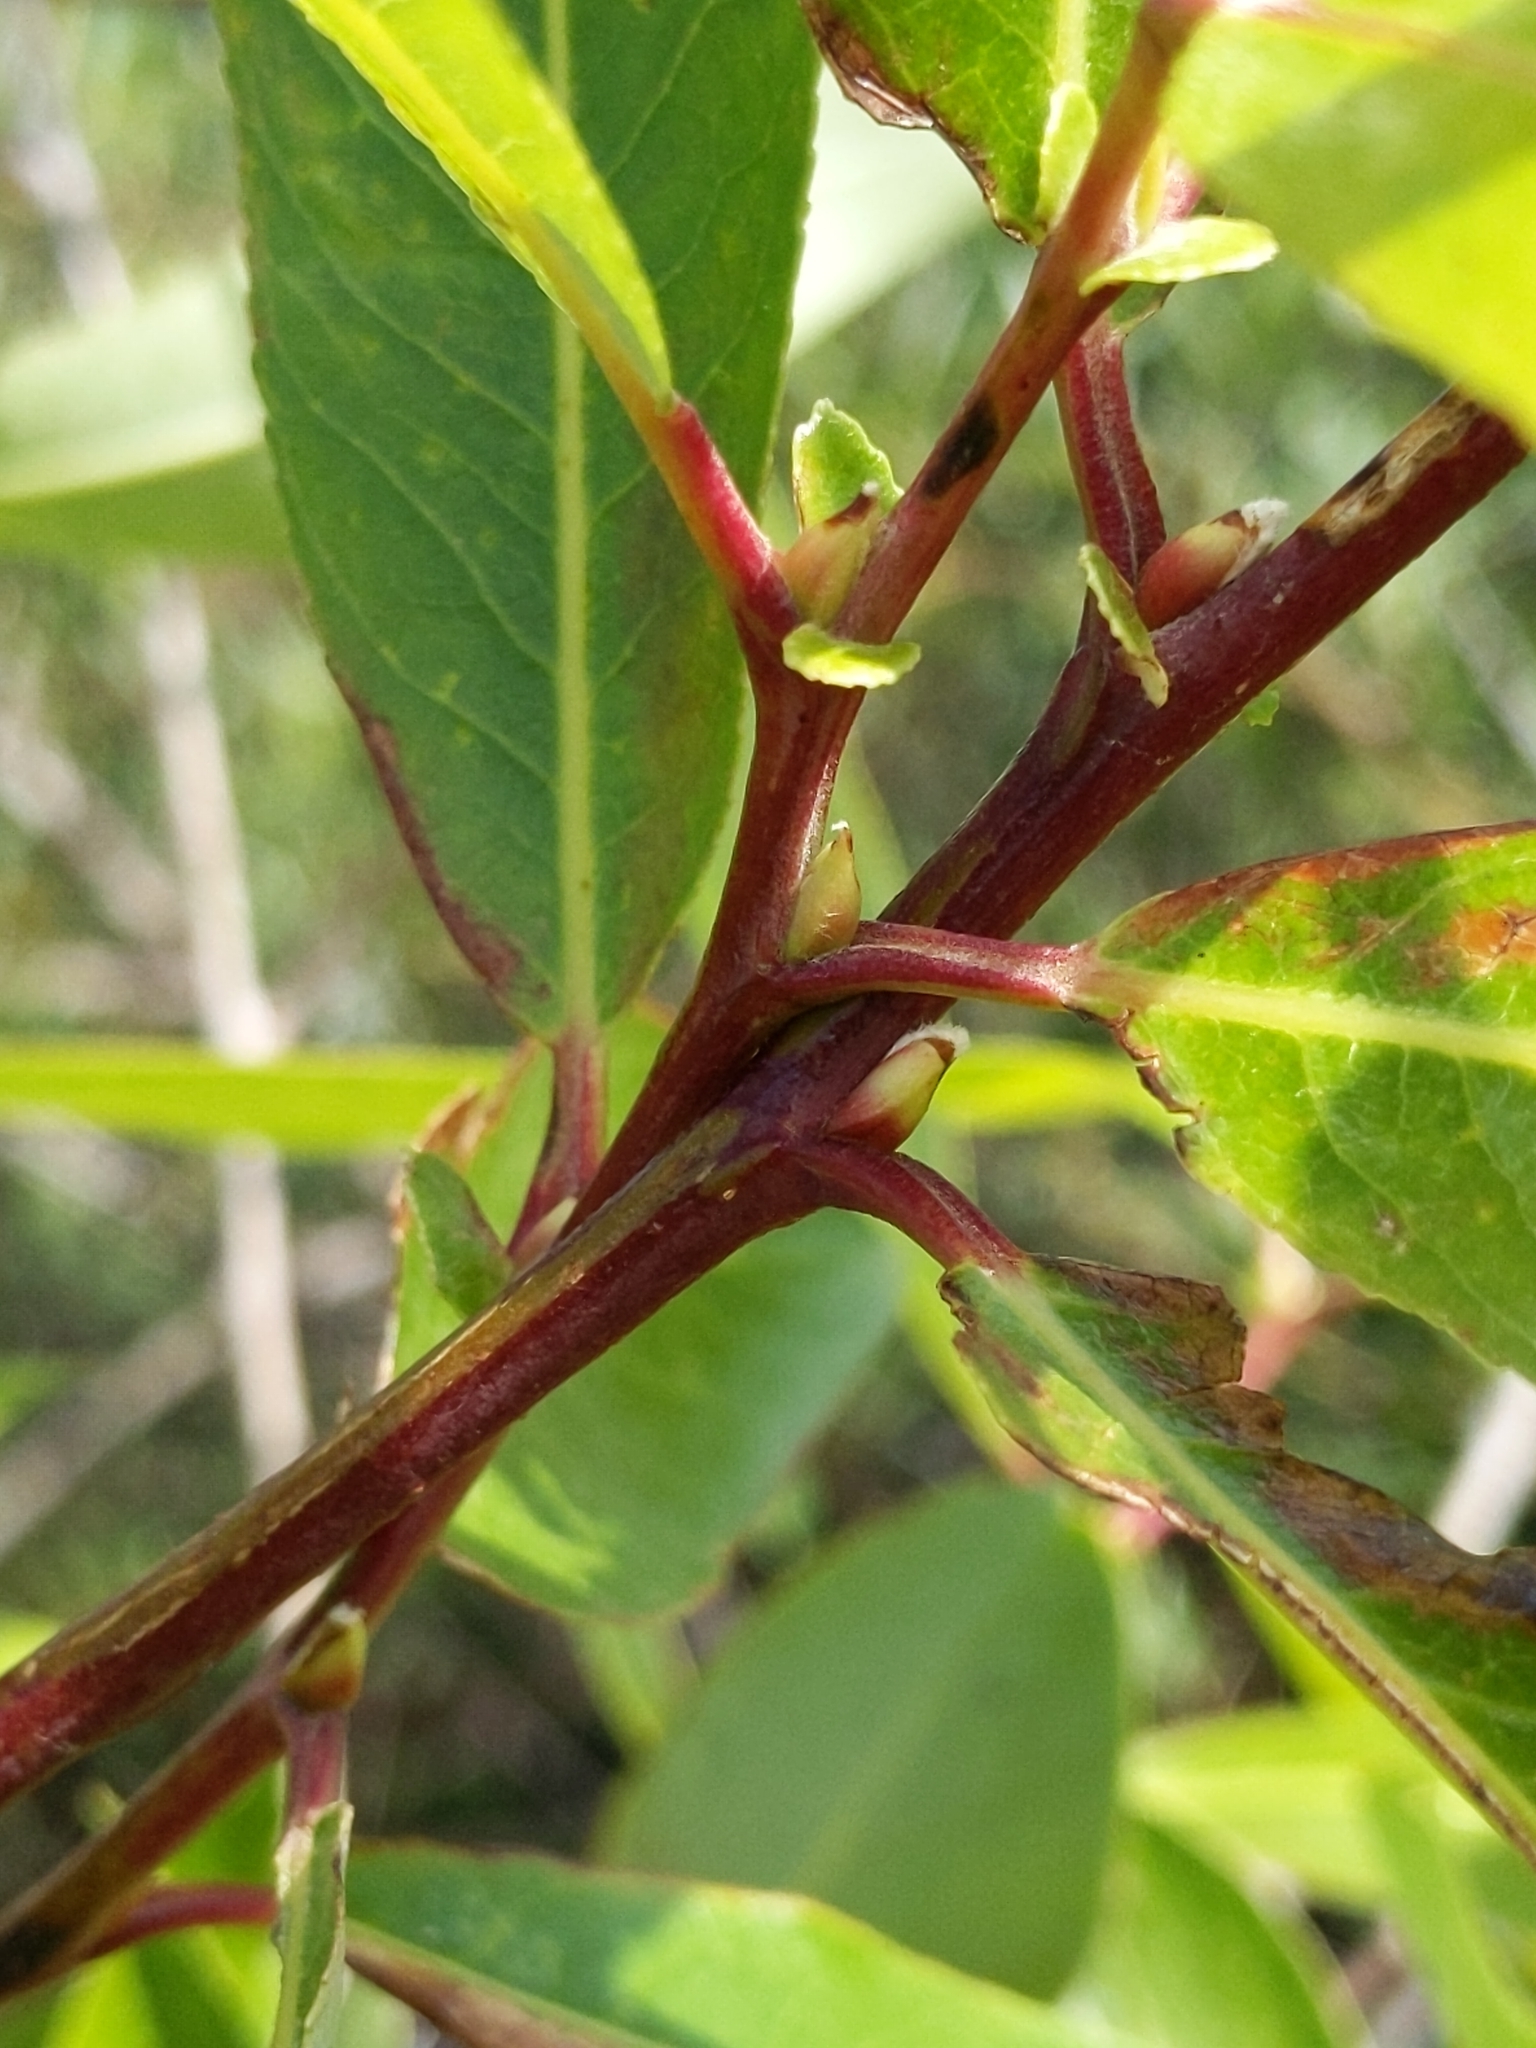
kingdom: Plantae
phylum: Tracheophyta
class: Magnoliopsida
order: Malpighiales
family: Salicaceae
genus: Salix
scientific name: Salix laevigata
